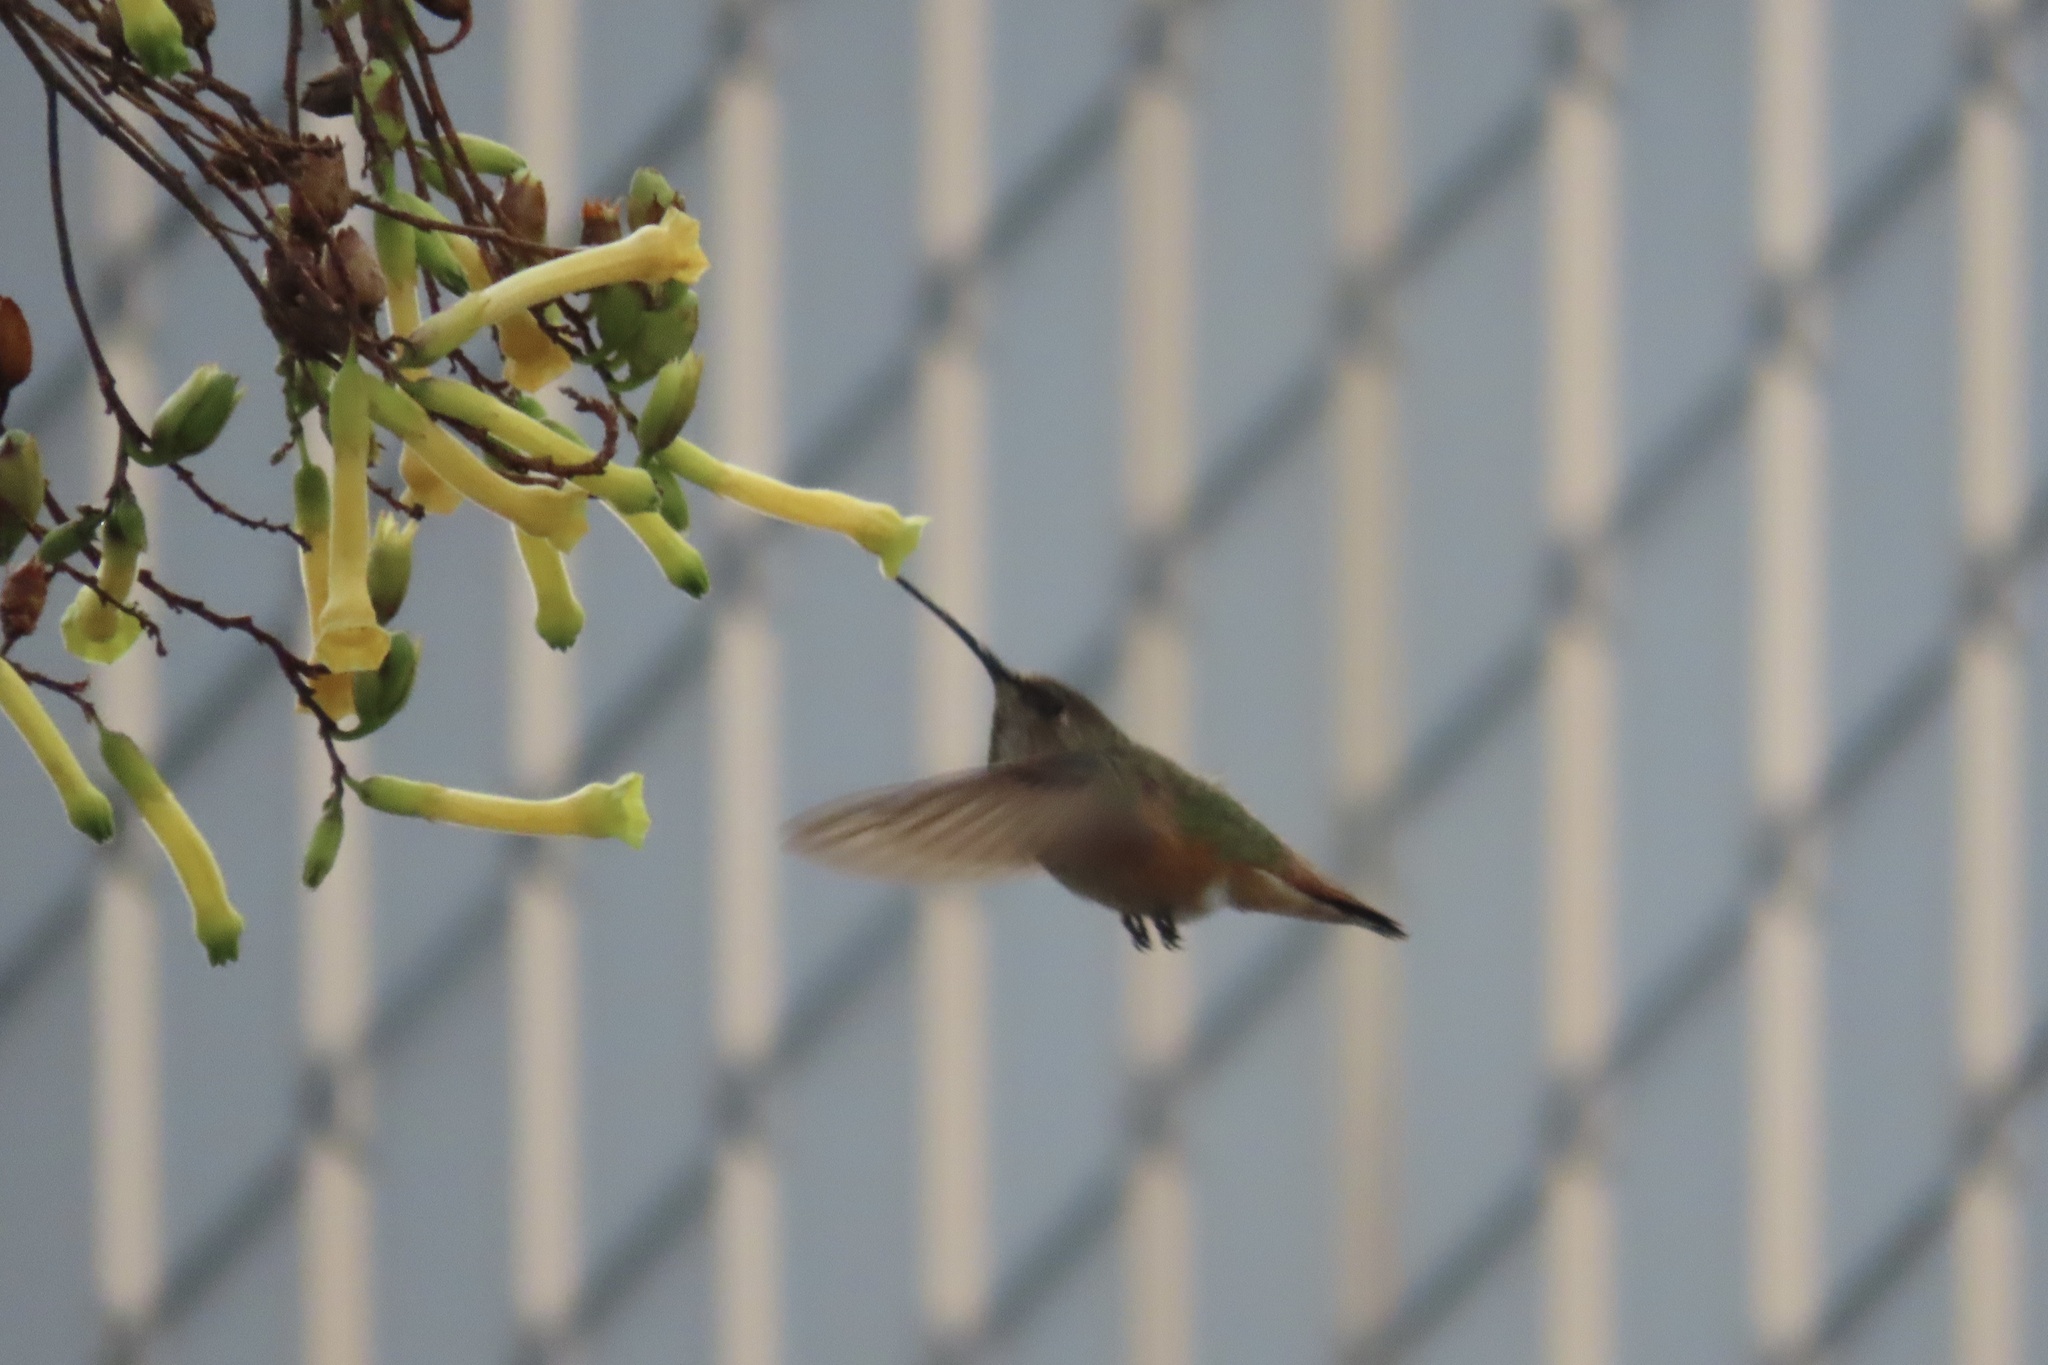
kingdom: Animalia
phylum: Chordata
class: Aves
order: Apodiformes
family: Trochilidae
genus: Selasphorus
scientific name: Selasphorus
